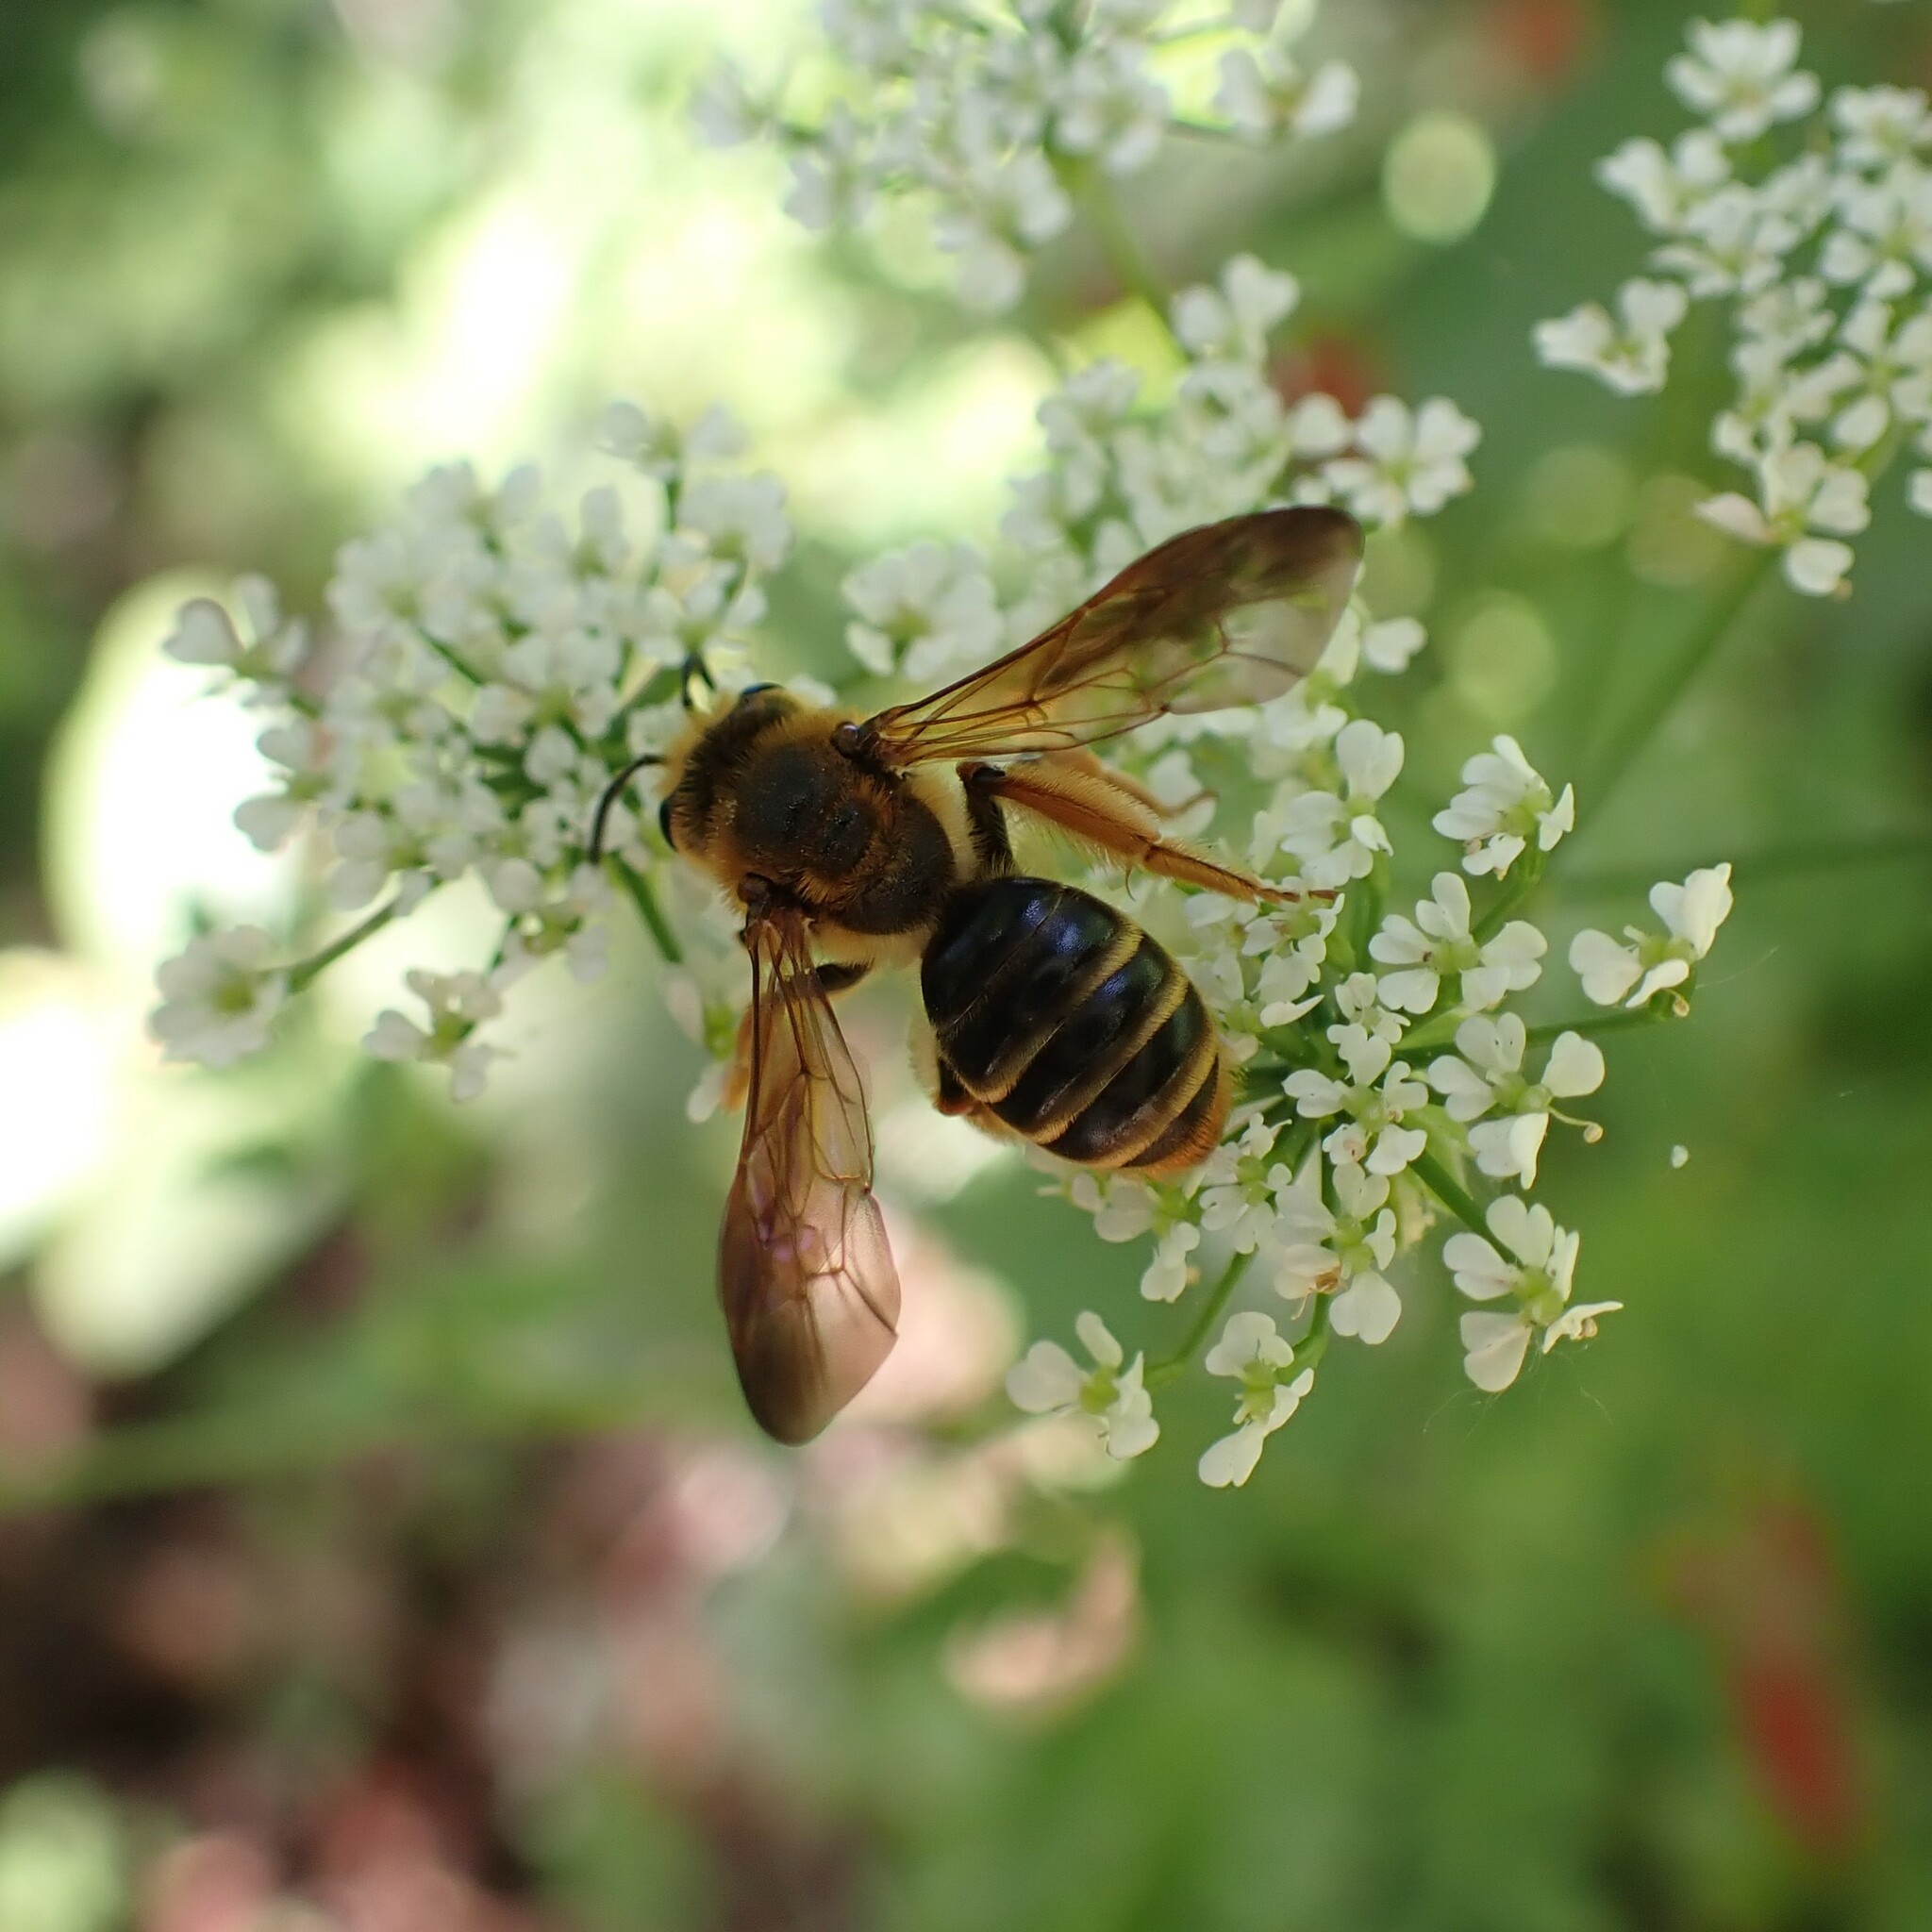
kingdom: Animalia
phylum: Arthropoda
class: Insecta
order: Hymenoptera
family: Andrenidae
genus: Andrena
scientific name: Andrena prunorum
